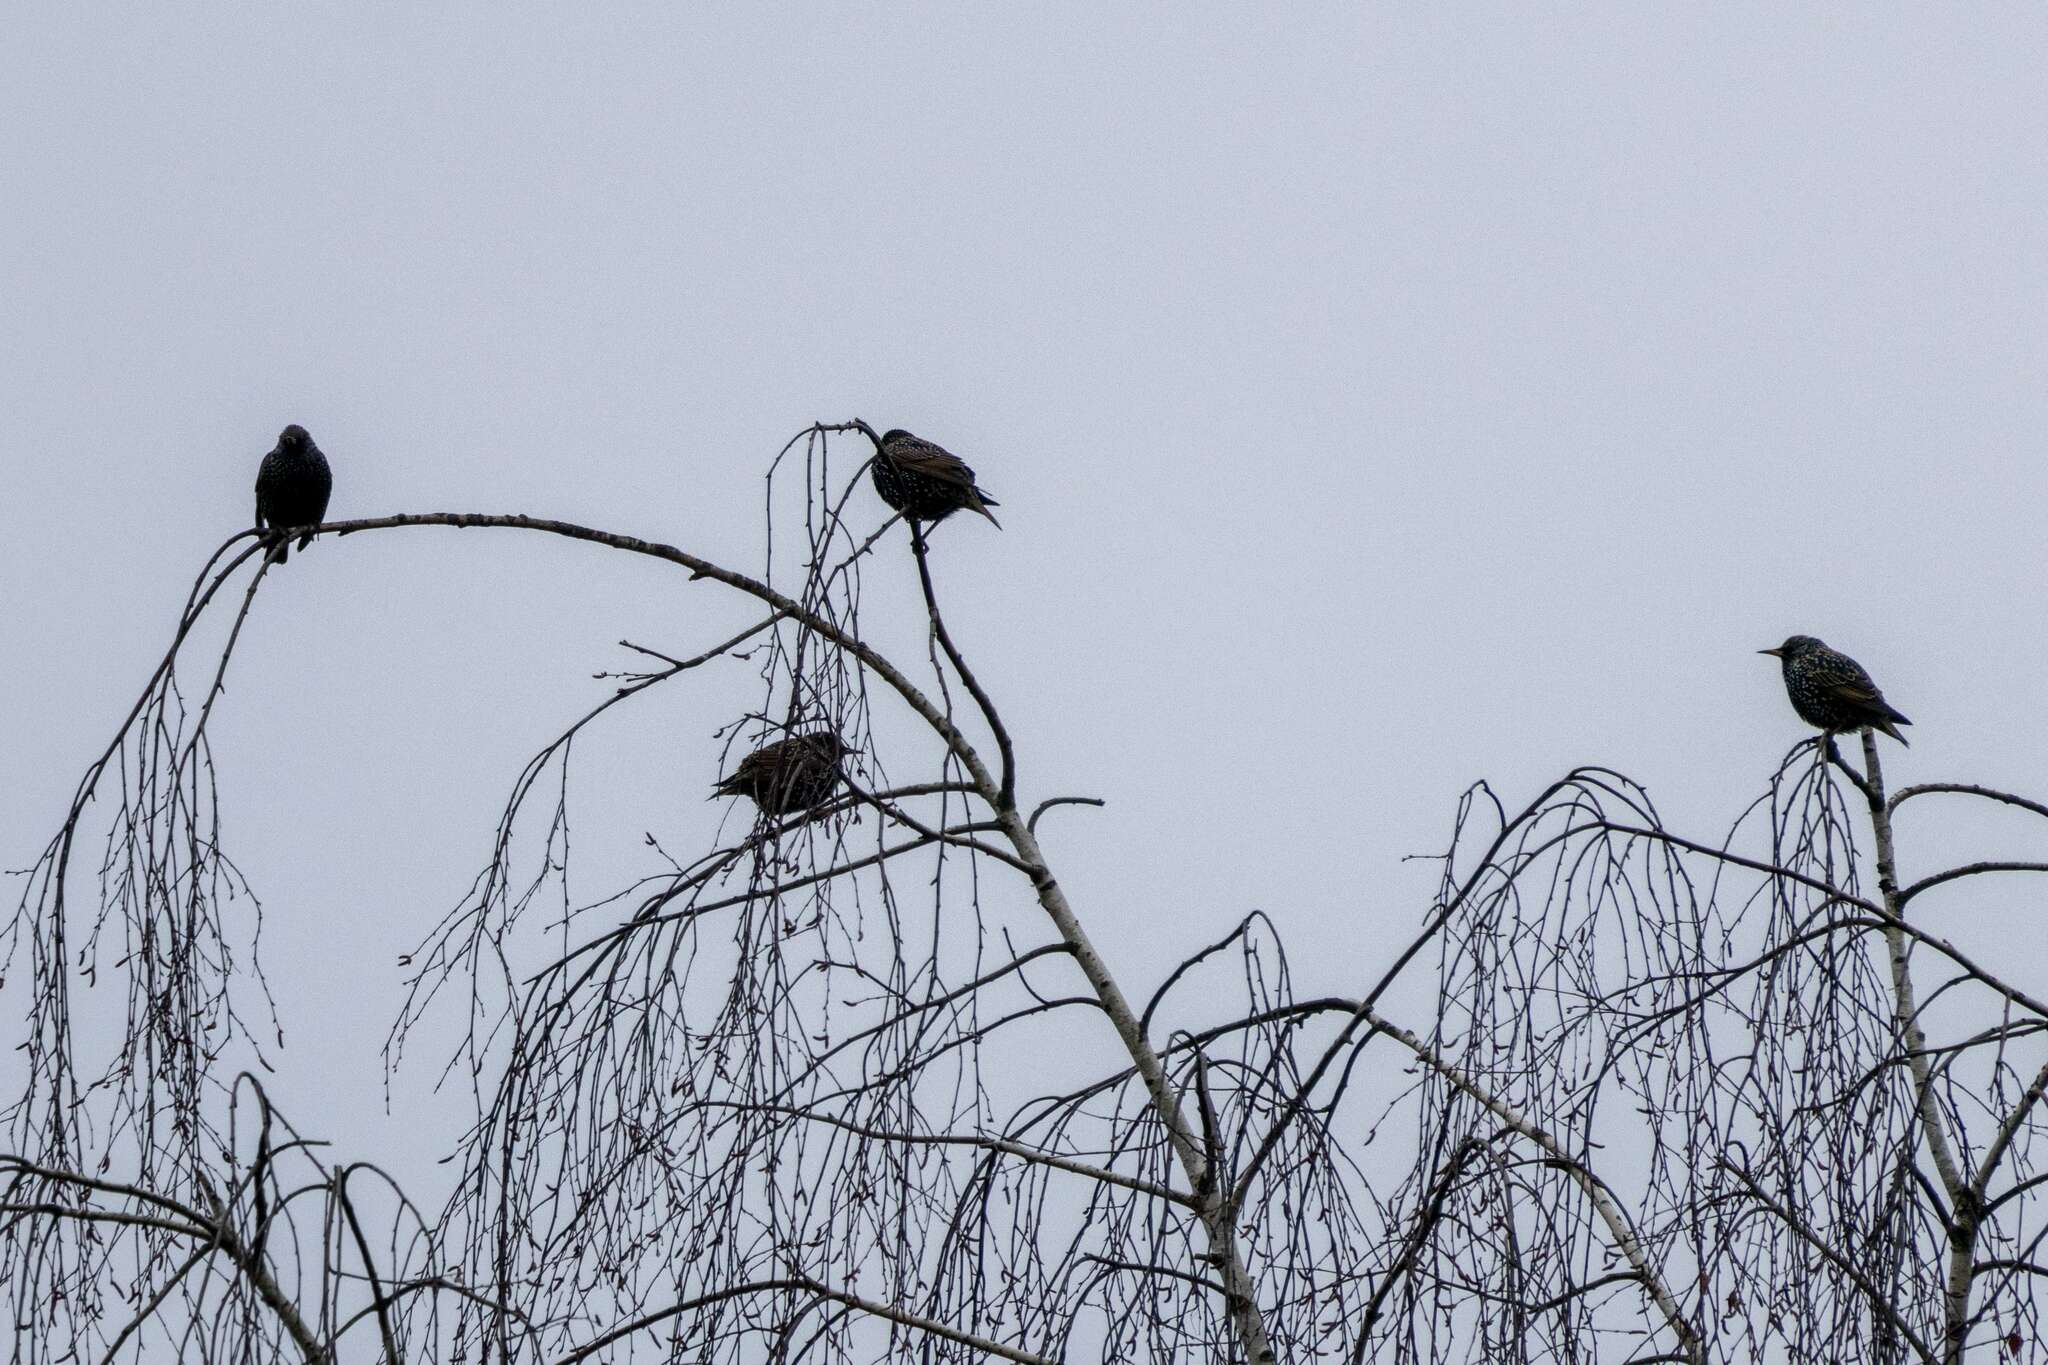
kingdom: Animalia
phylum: Chordata
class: Aves
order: Passeriformes
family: Sturnidae
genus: Sturnus
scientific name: Sturnus vulgaris
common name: Common starling
